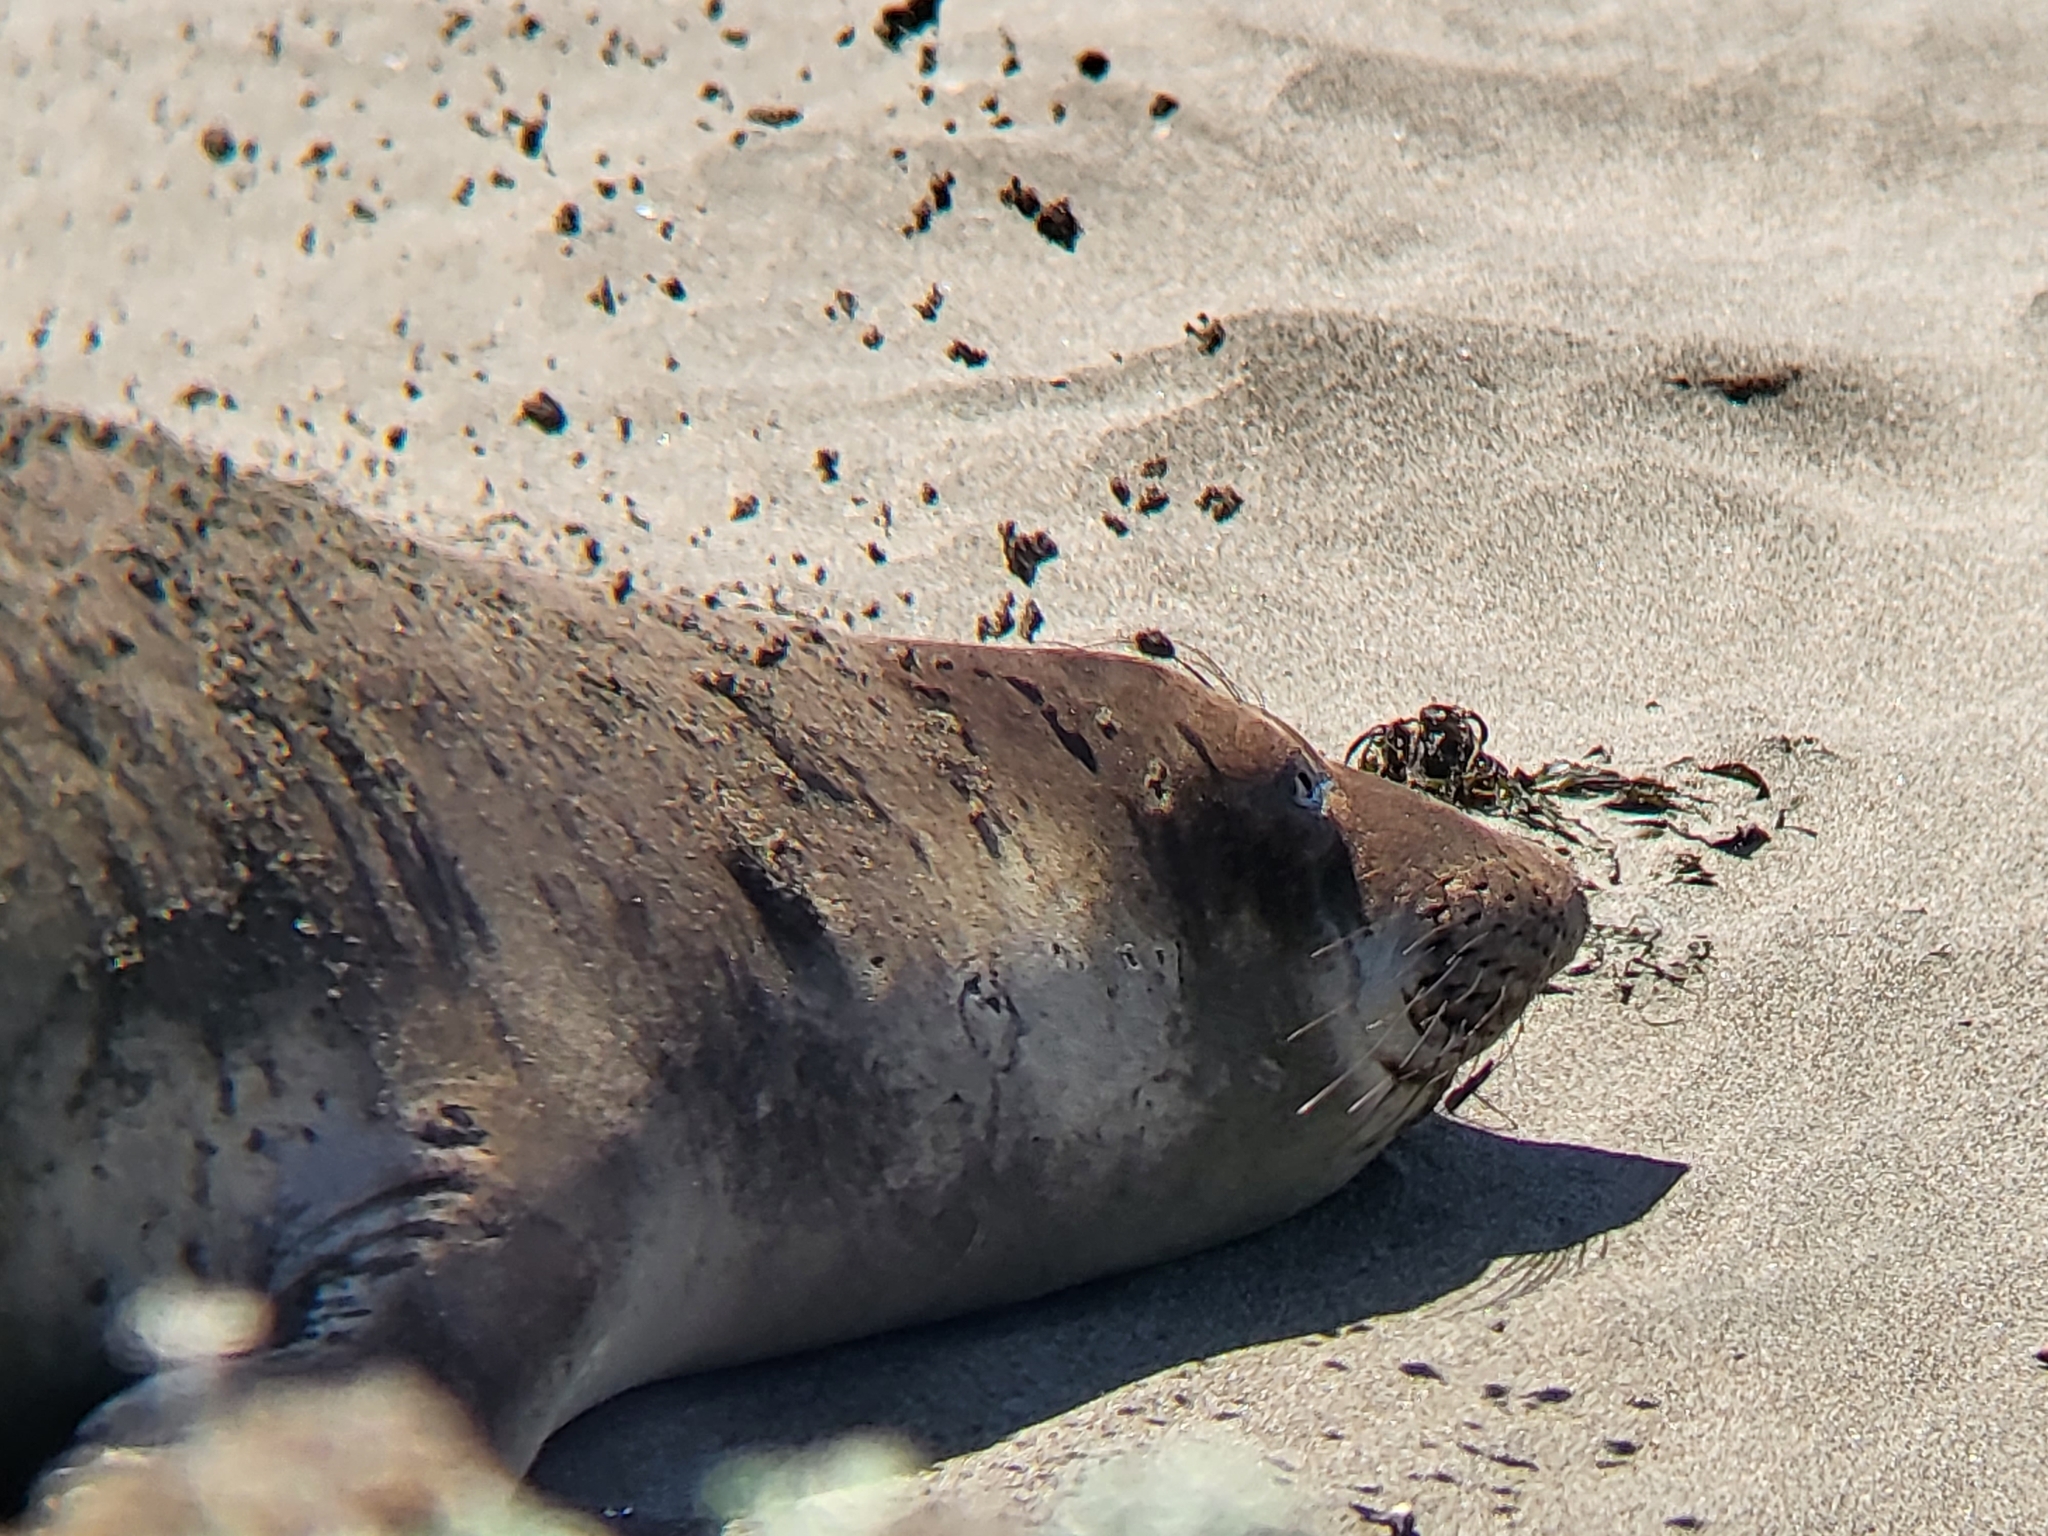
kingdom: Animalia
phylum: Chordata
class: Mammalia
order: Carnivora
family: Phocidae
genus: Mirounga
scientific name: Mirounga angustirostris
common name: Northern elephant seal
